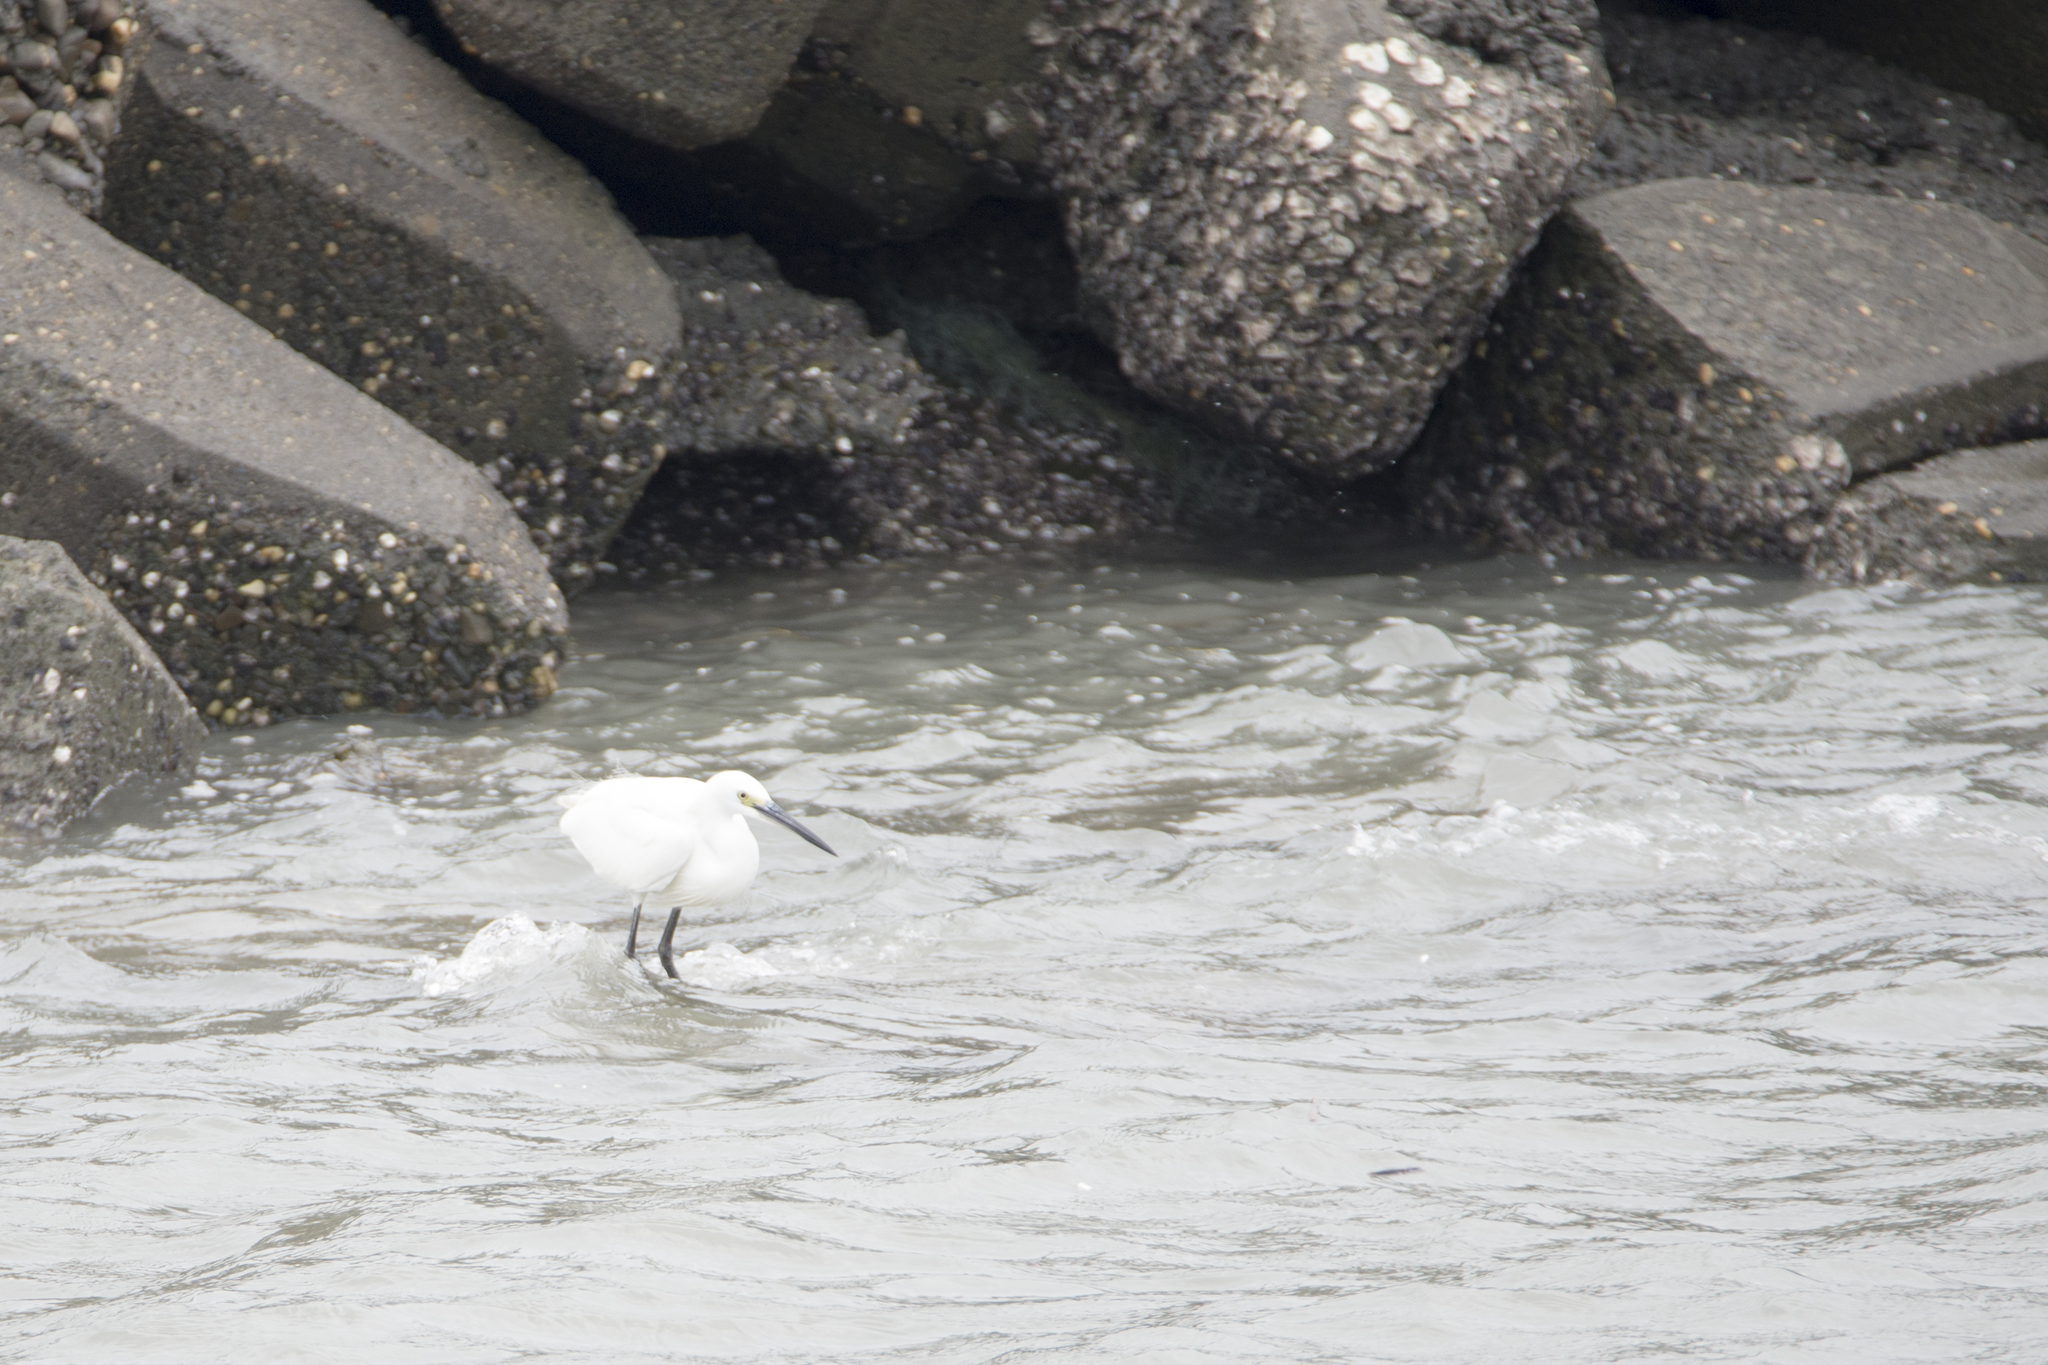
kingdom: Animalia
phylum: Chordata
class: Aves
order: Pelecaniformes
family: Ardeidae
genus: Egretta
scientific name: Egretta garzetta
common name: Little egret
